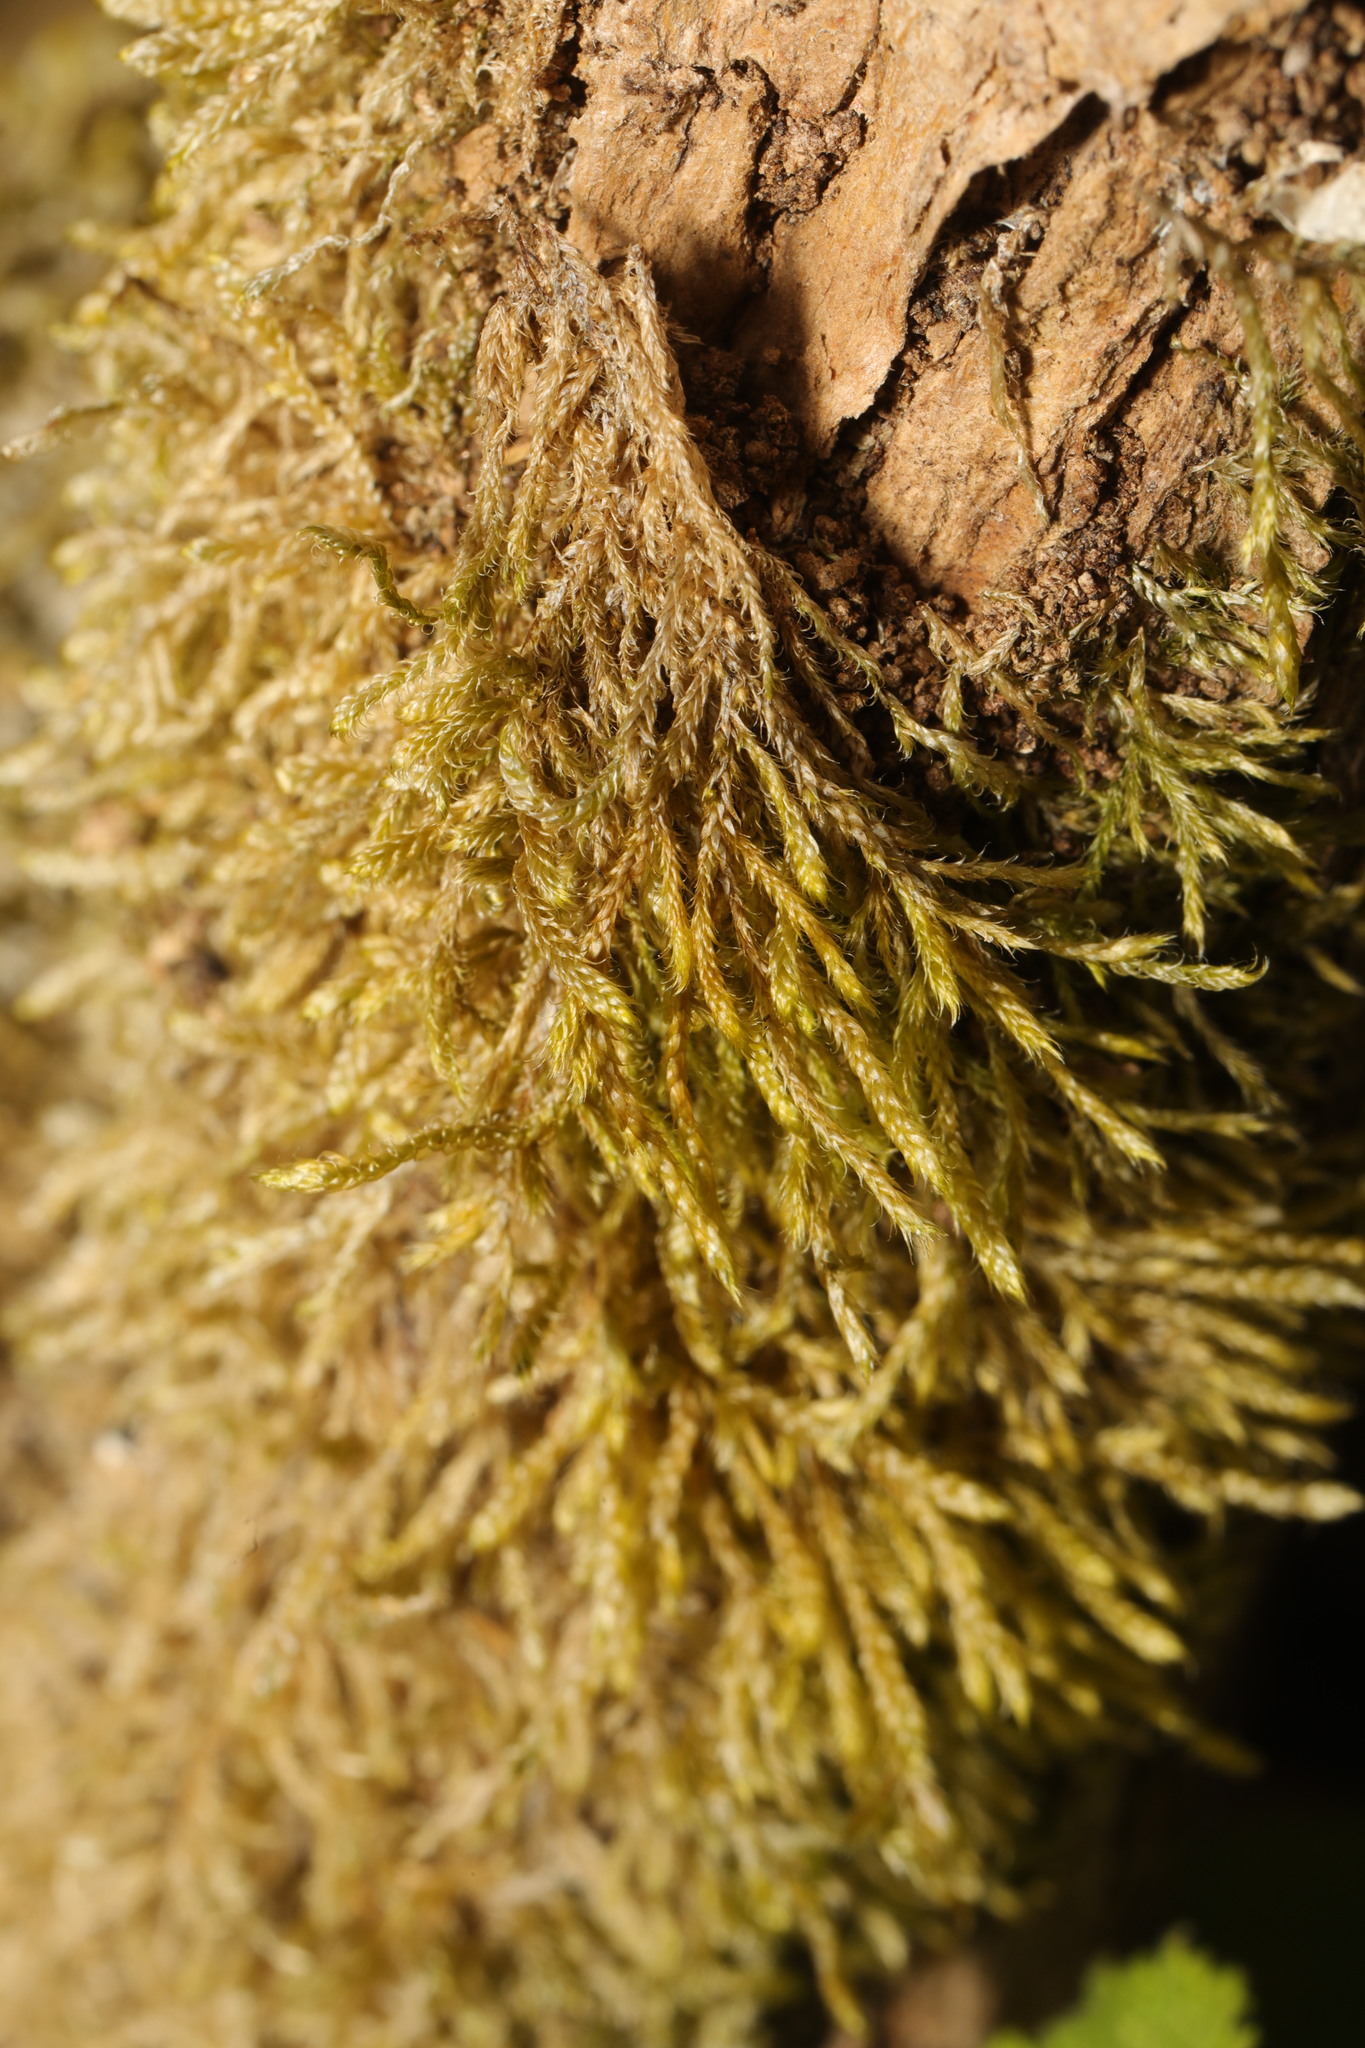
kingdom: Plantae
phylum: Bryophyta
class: Bryopsida
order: Hypnales
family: Hypnaceae
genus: Hypnum
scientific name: Hypnum cupressiforme
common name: Cypress-leaved plait-moss
